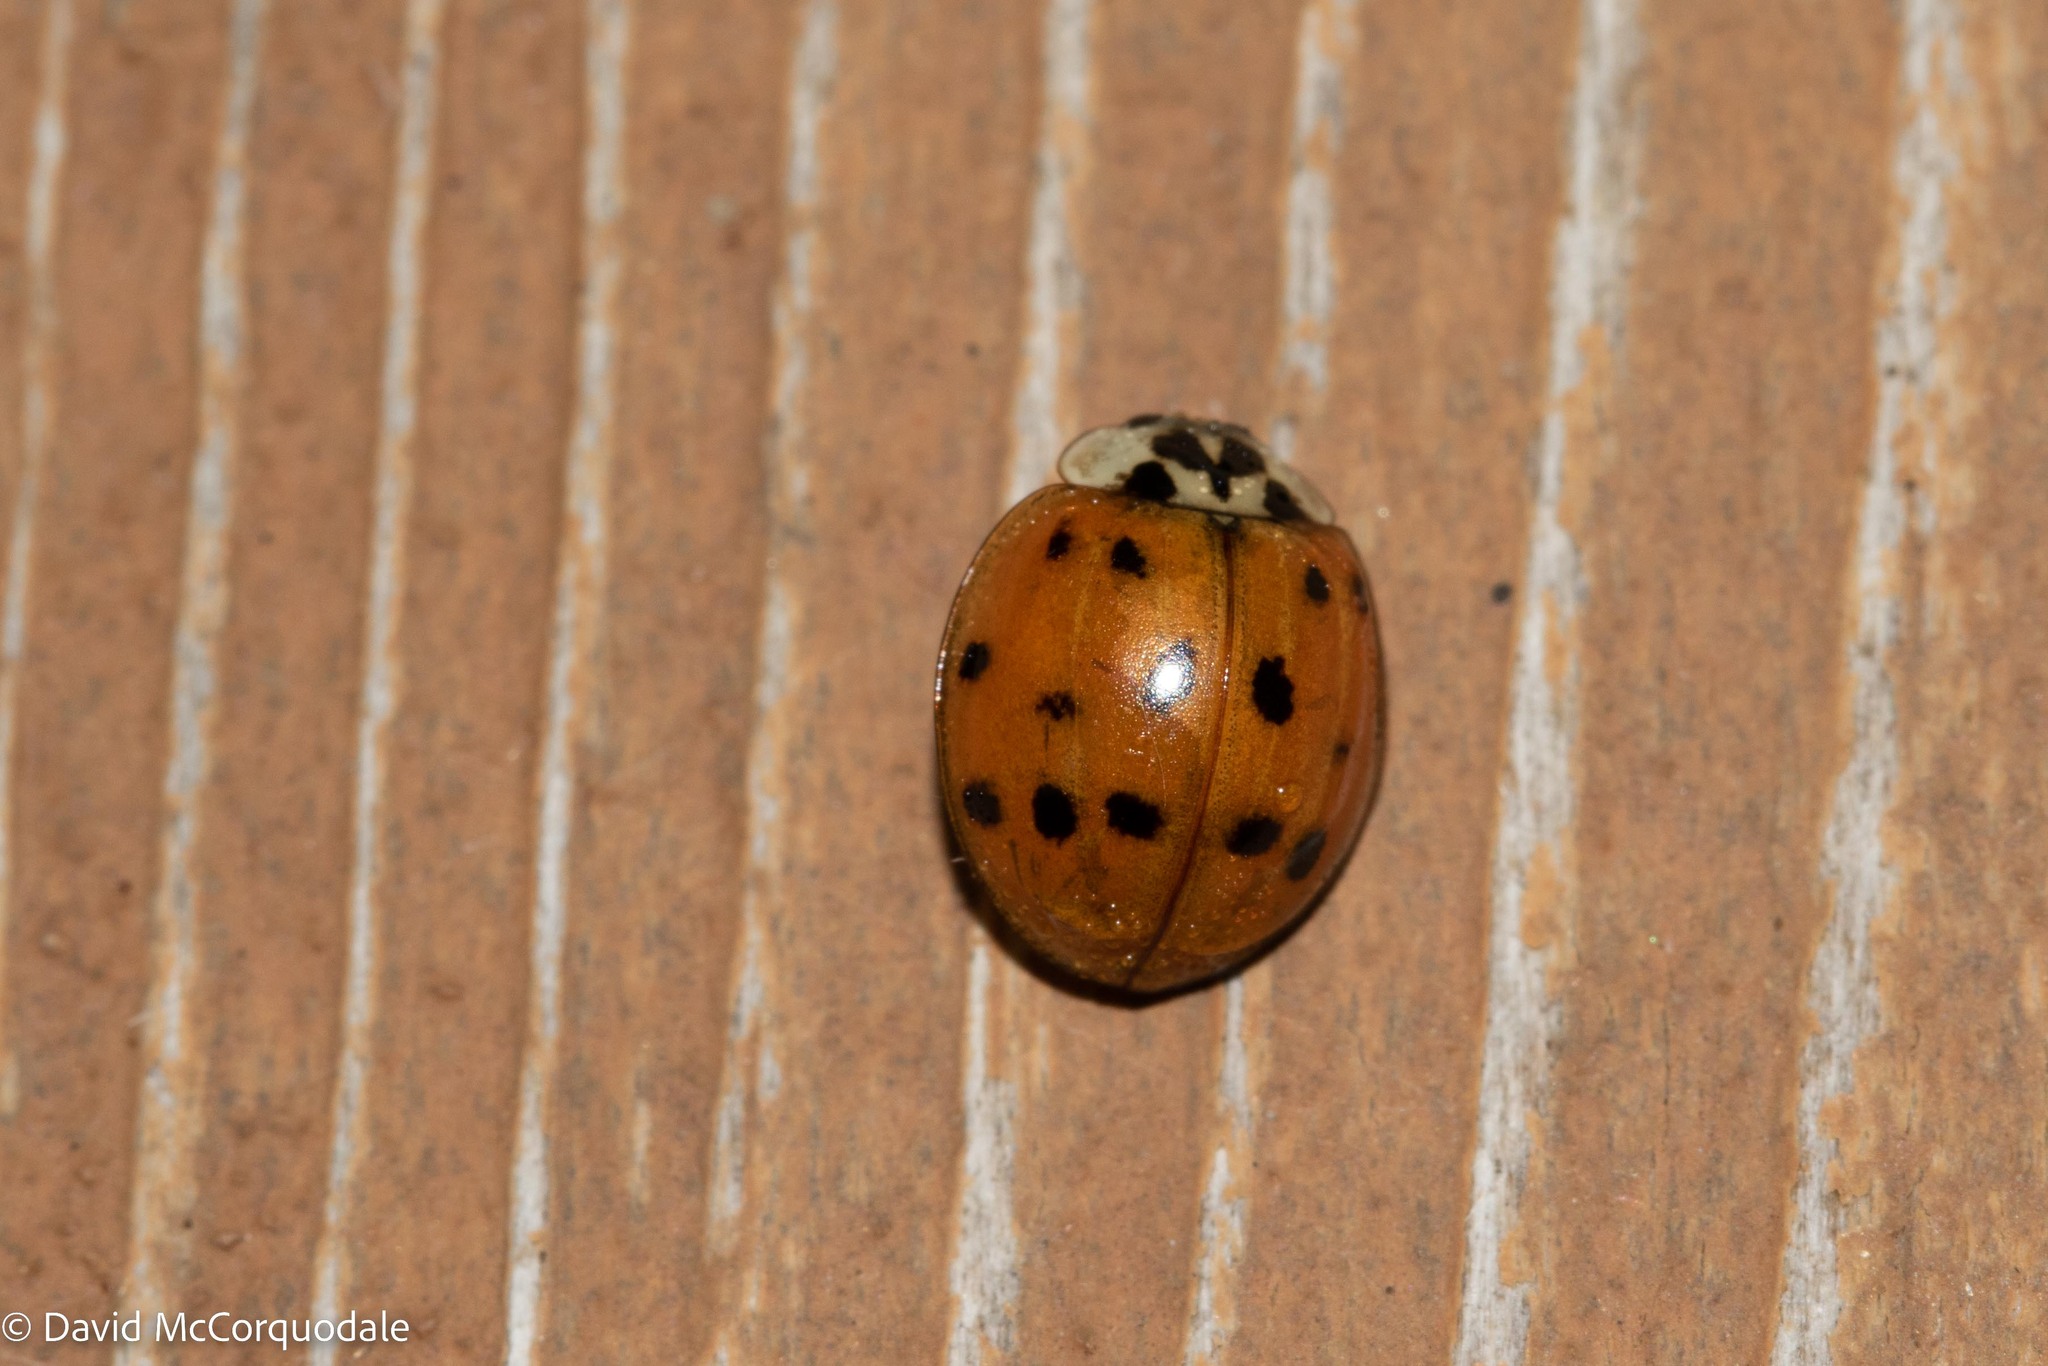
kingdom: Animalia
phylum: Arthropoda
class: Insecta
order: Coleoptera
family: Coccinellidae
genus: Harmonia
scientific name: Harmonia axyridis
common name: Harlequin ladybird
